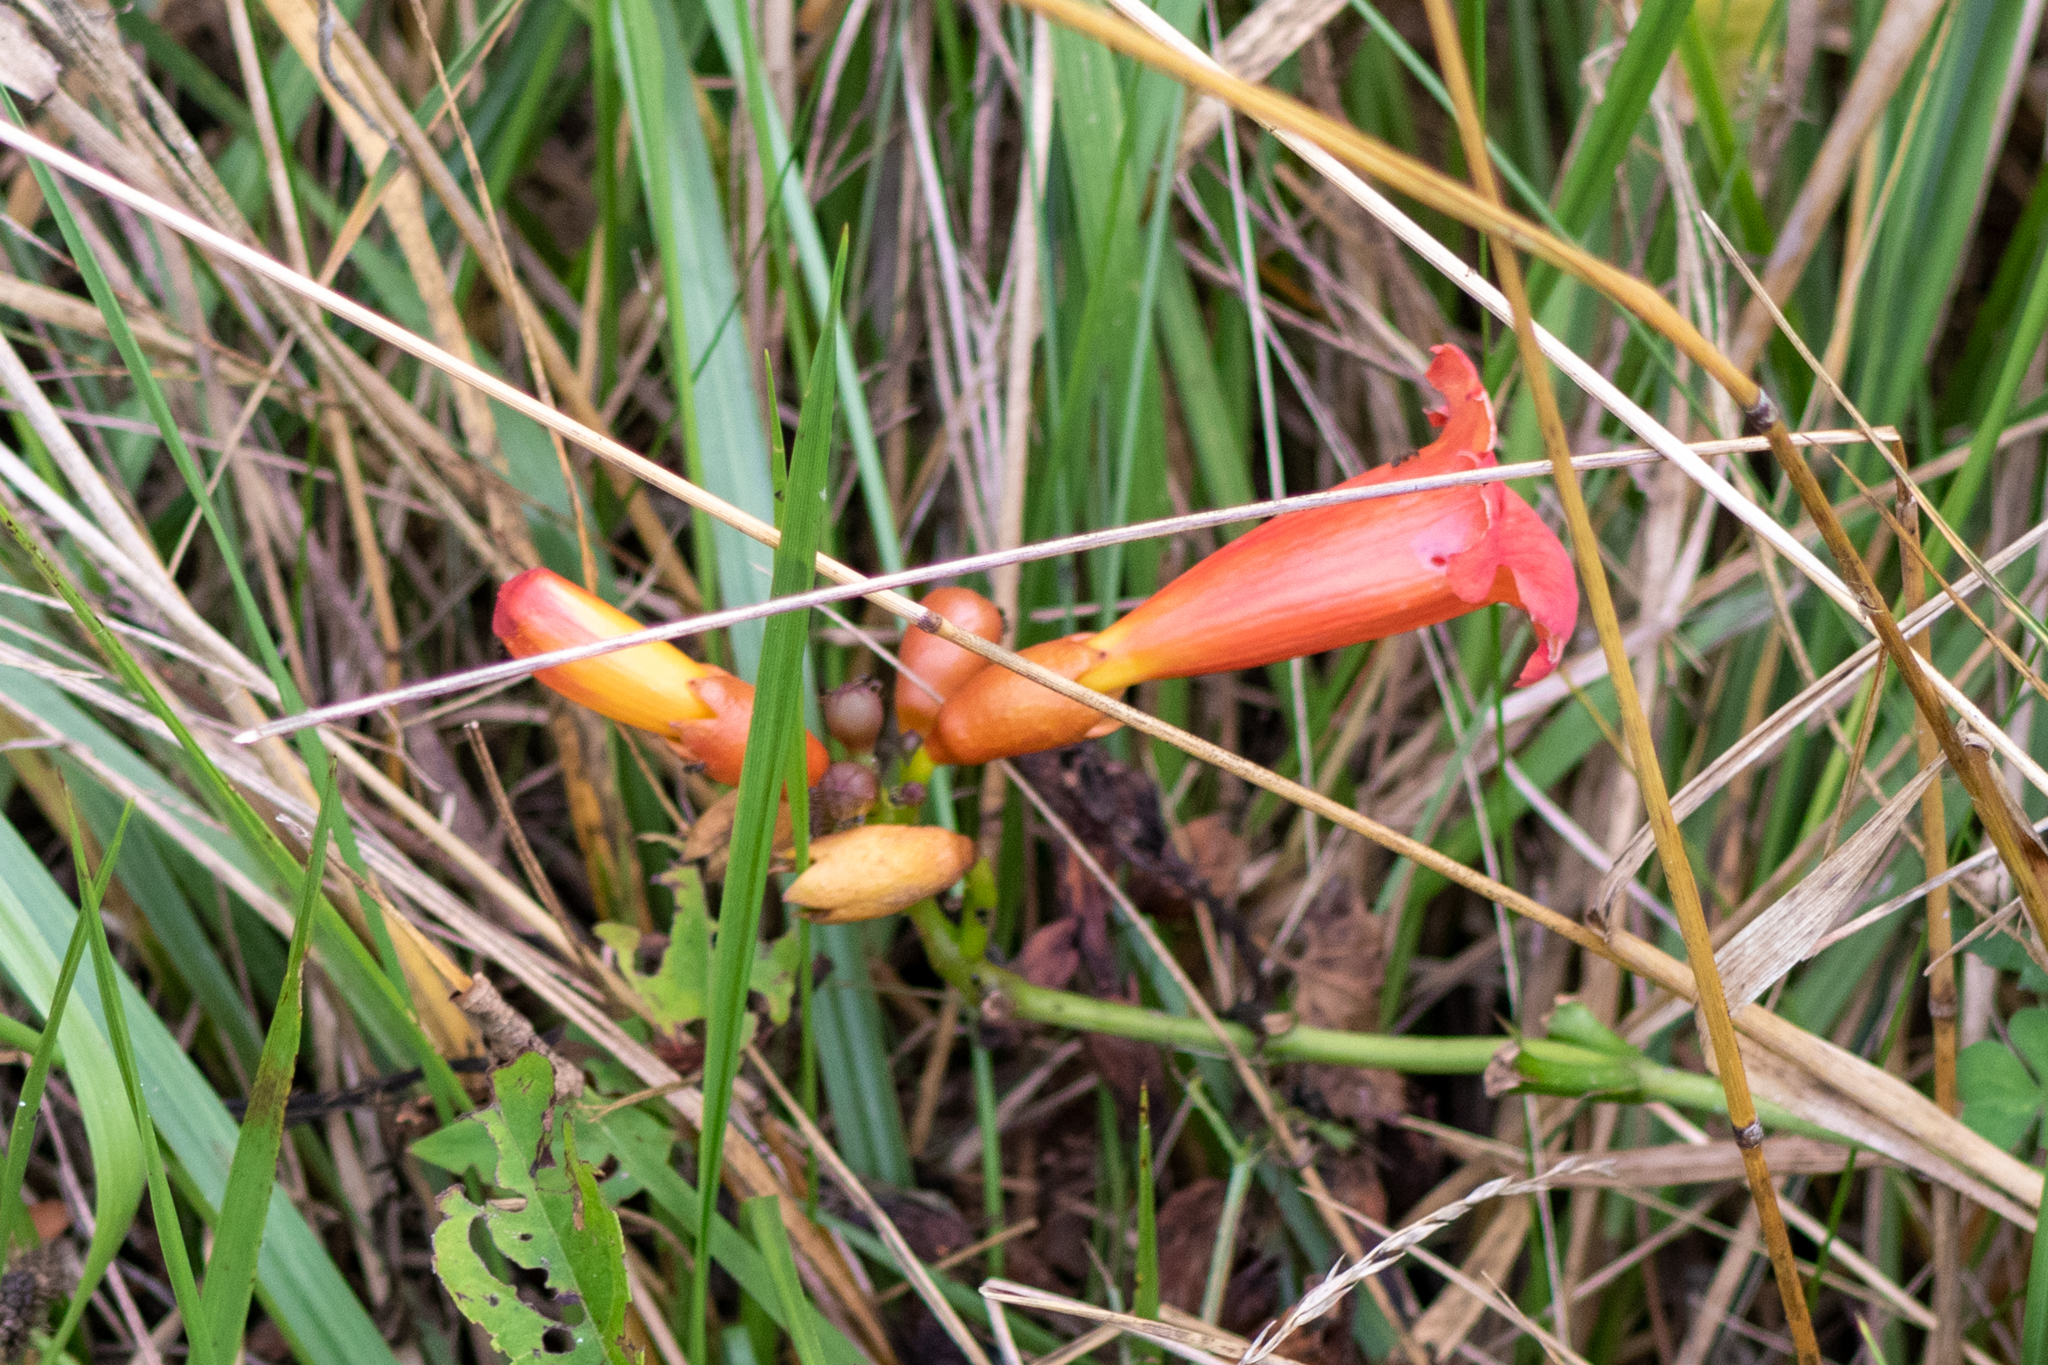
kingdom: Plantae
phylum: Tracheophyta
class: Magnoliopsida
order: Lamiales
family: Bignoniaceae
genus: Campsis
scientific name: Campsis radicans
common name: Trumpet-creeper
